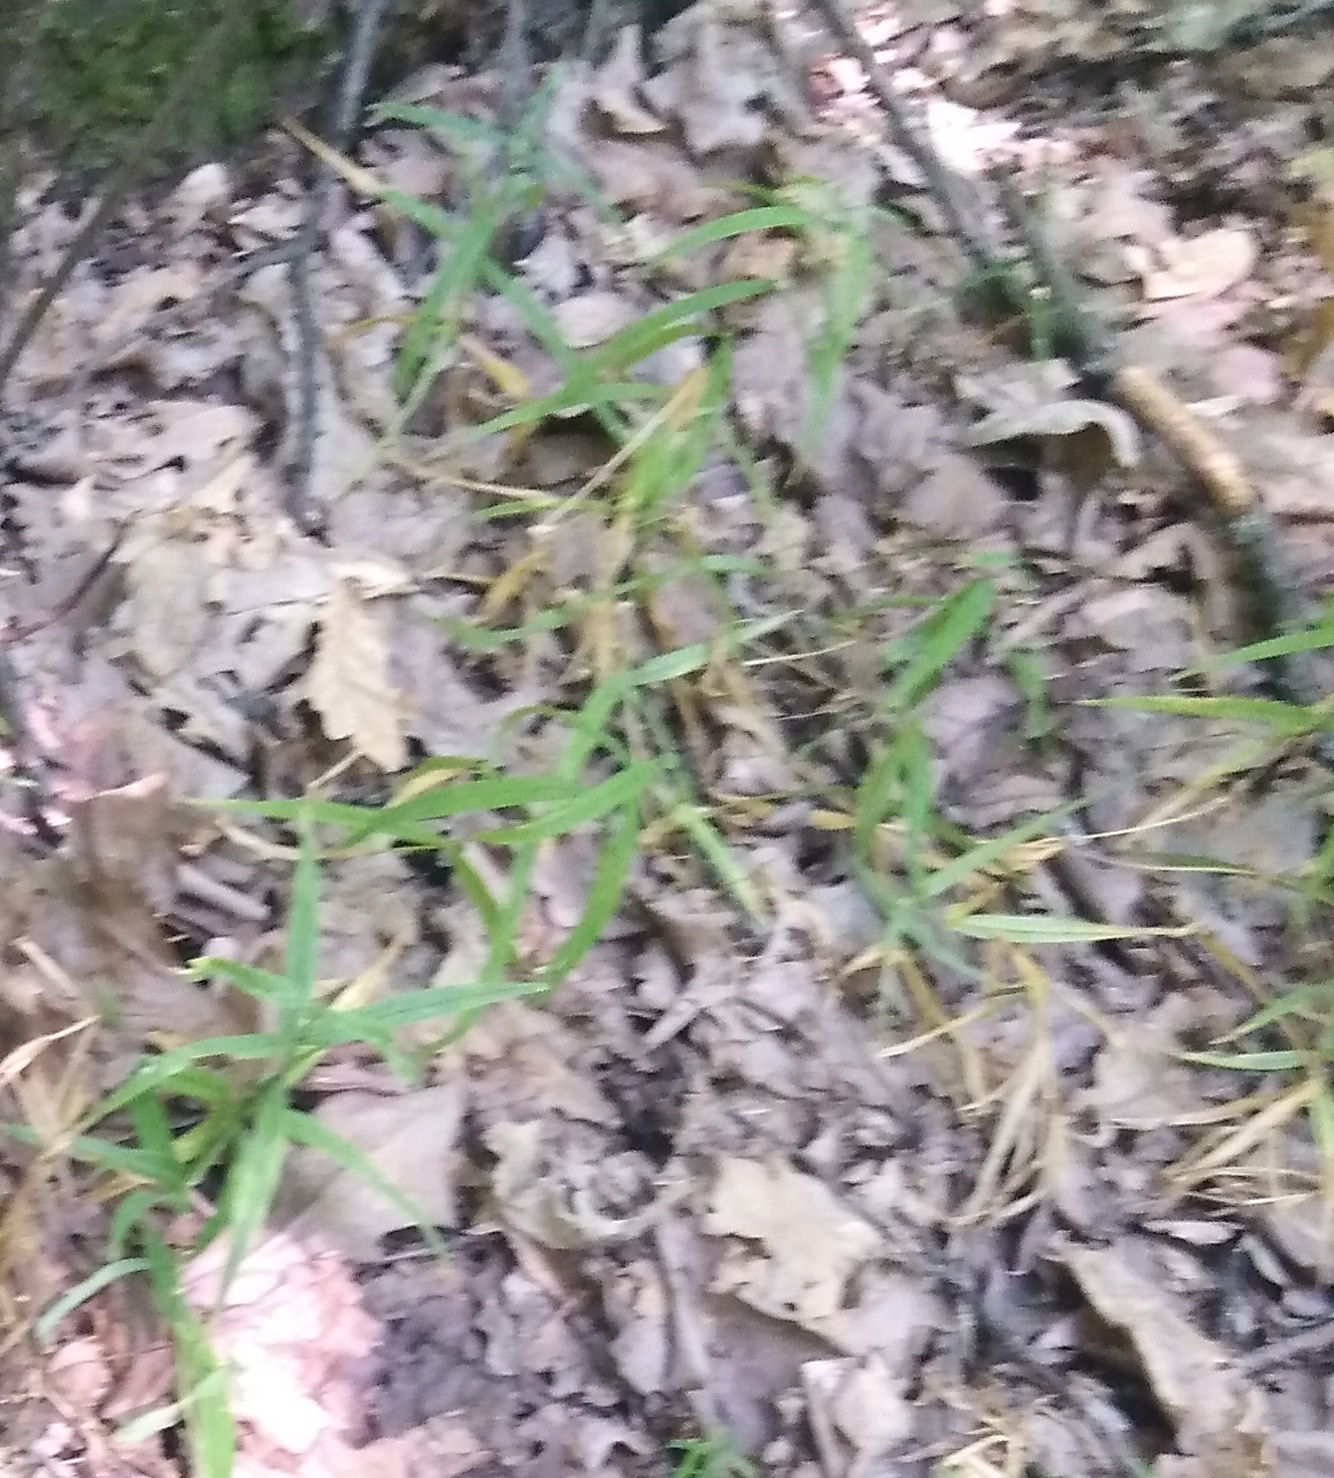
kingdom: Plantae
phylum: Tracheophyta
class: Magnoliopsida
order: Caryophyllales
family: Caryophyllaceae
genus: Rabelera
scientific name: Rabelera holostea
